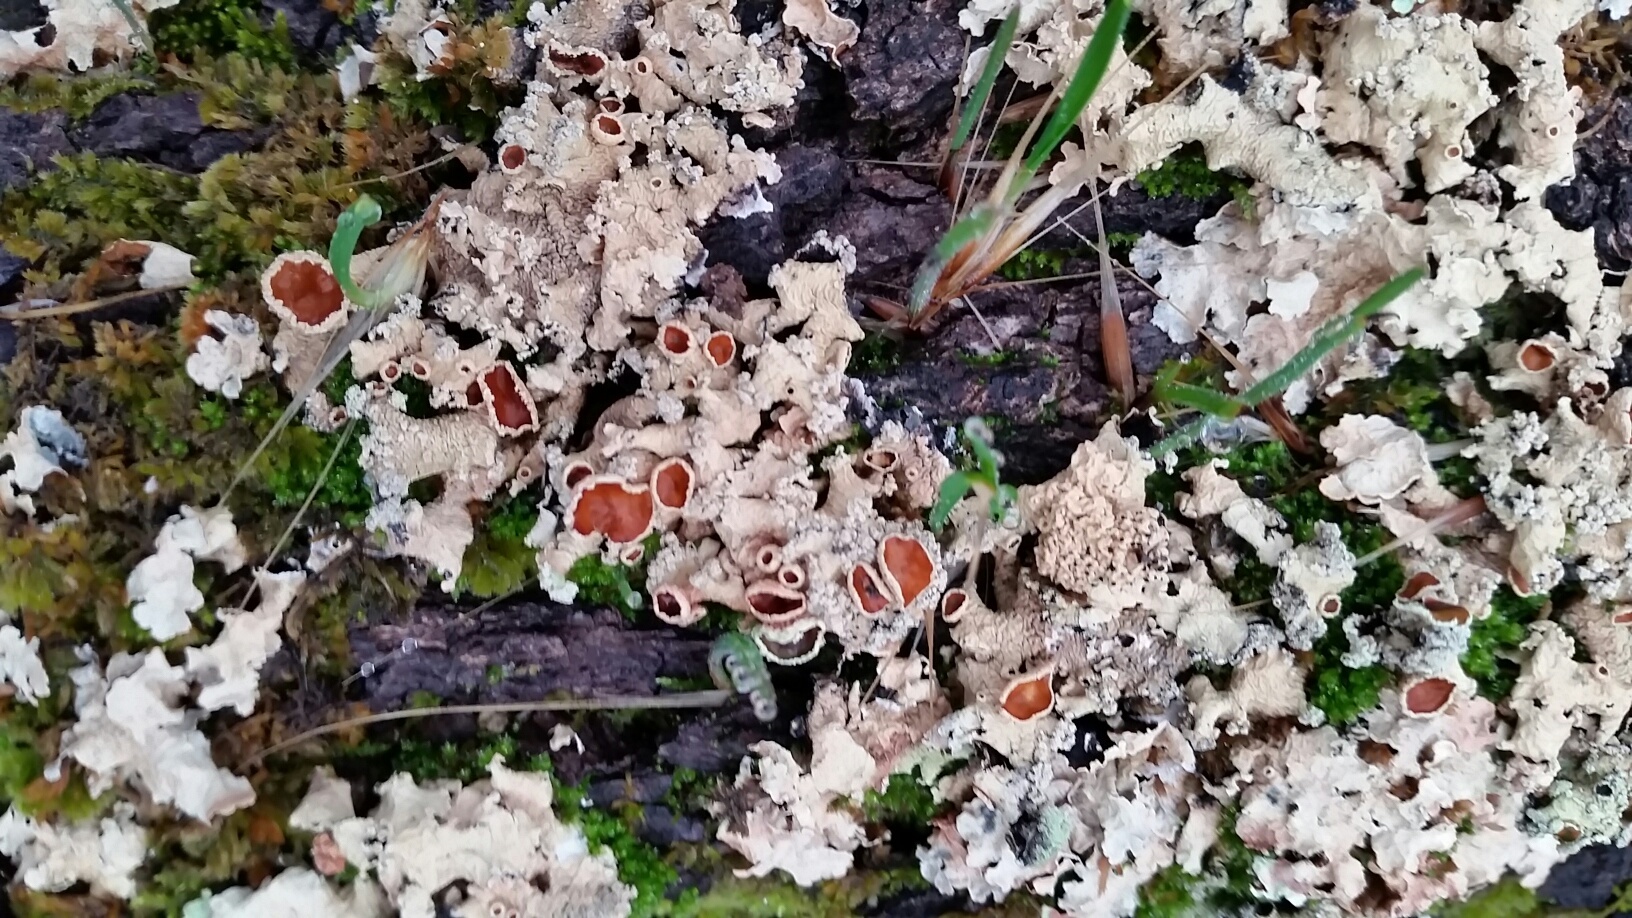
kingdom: Fungi
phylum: Ascomycota
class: Lecanoromycetes
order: Lecanorales
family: Parmeliaceae
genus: Parmelina
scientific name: Parmelina coleae
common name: Fringed shield lichen
